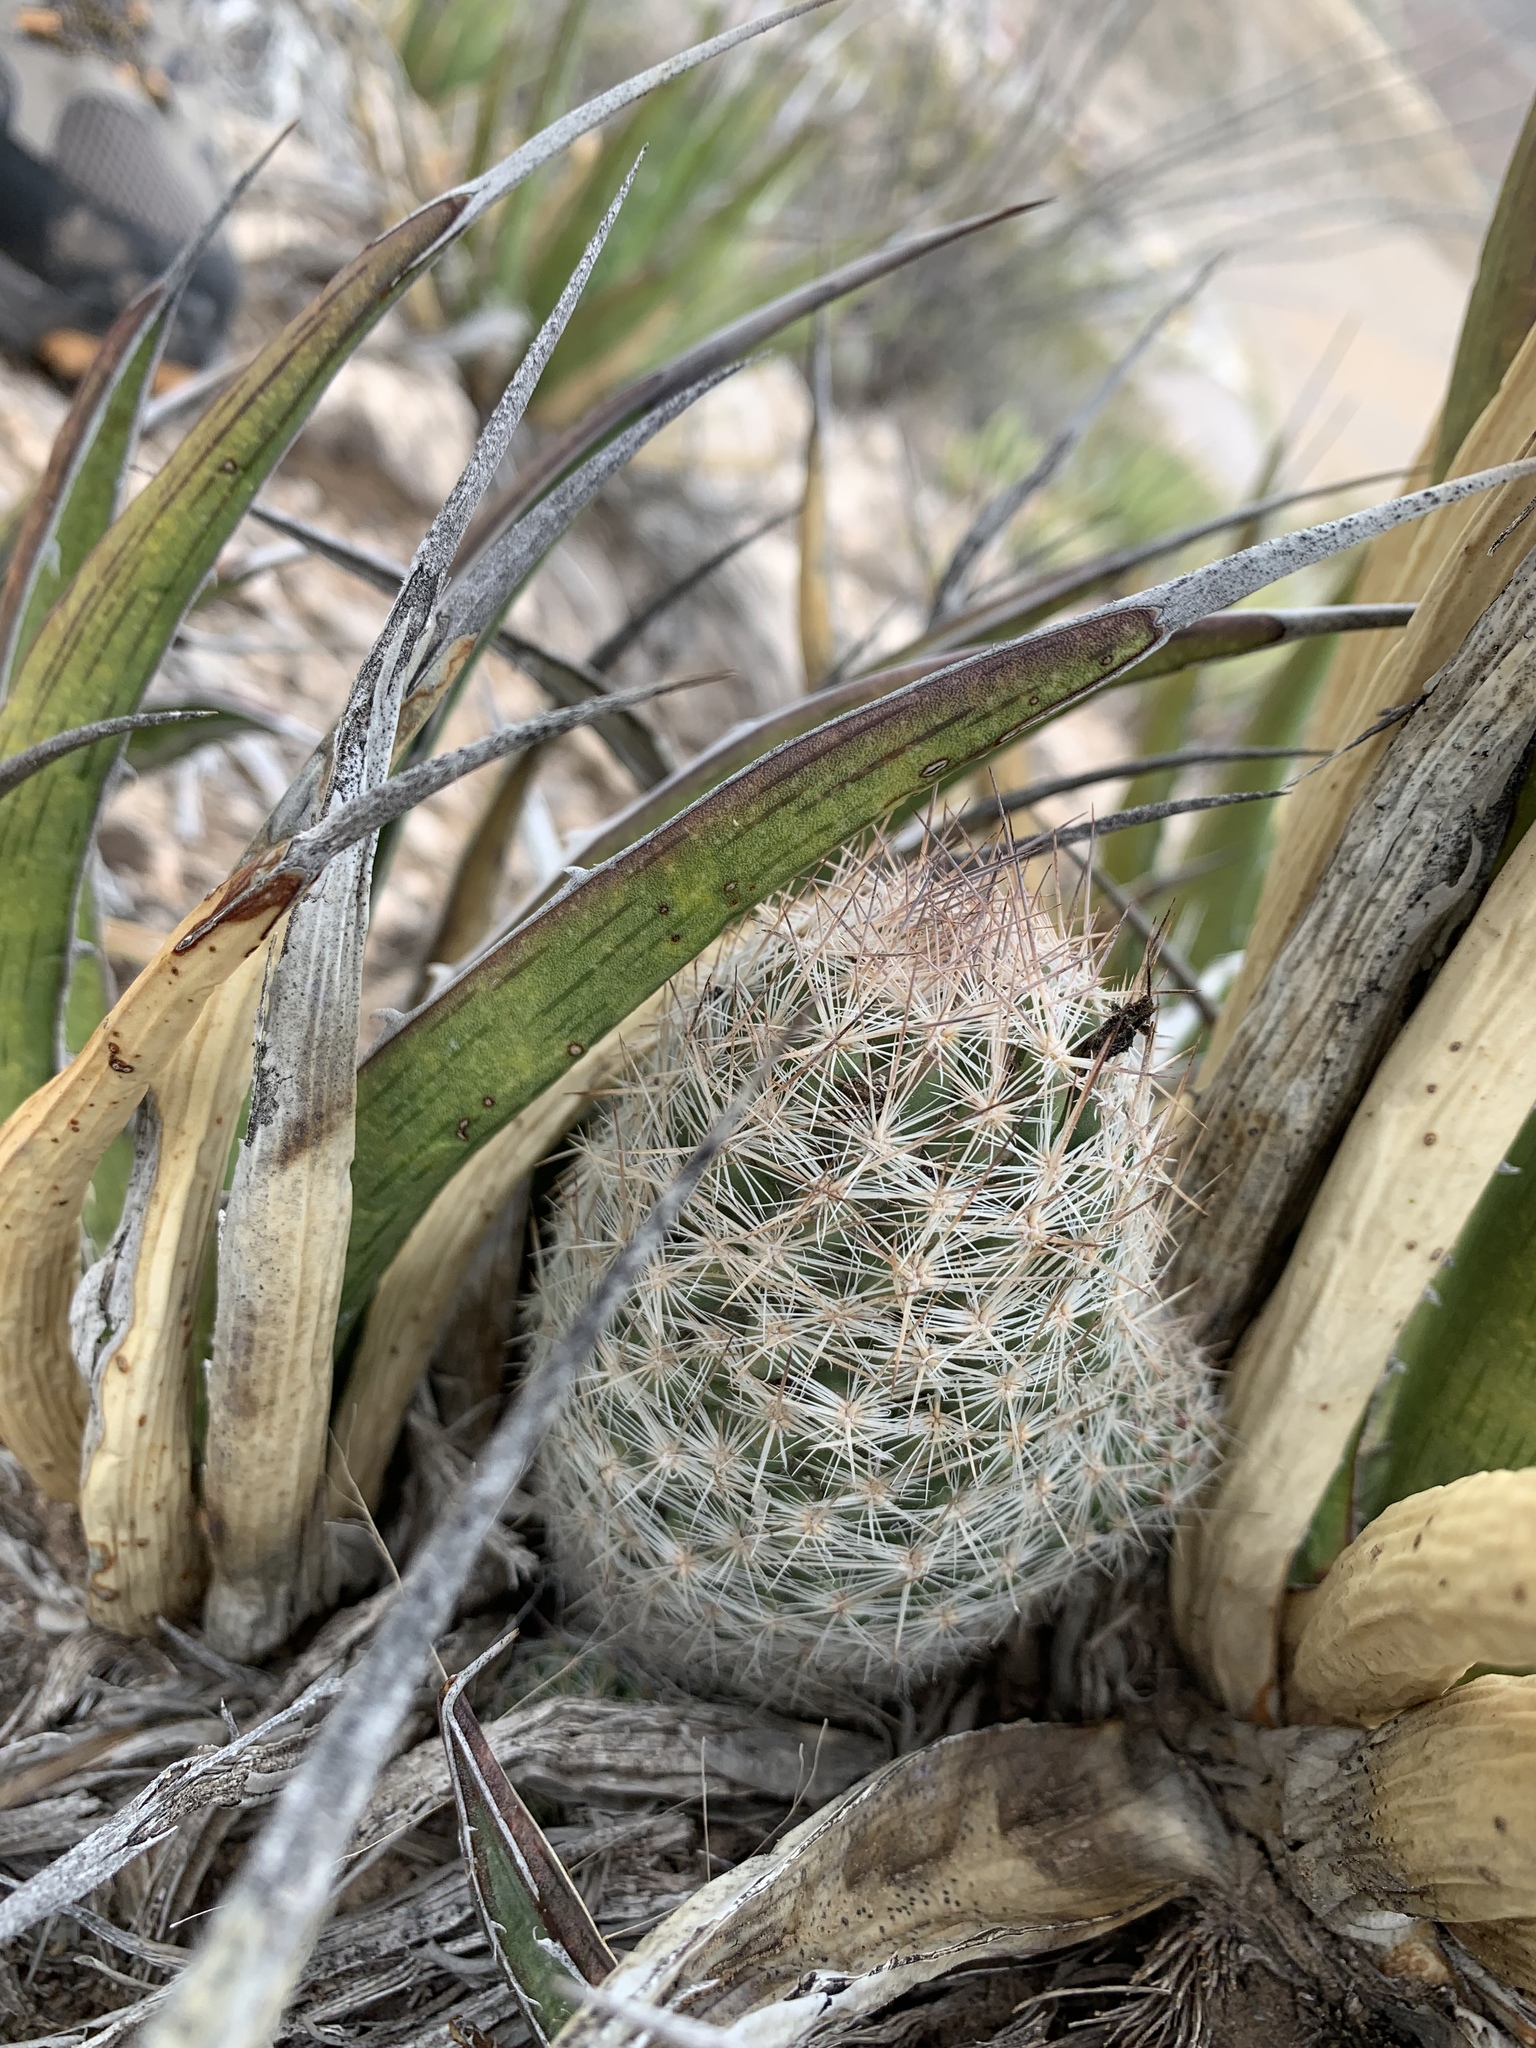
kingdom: Plantae
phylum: Tracheophyta
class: Magnoliopsida
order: Caryophyllales
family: Cactaceae
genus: Pelecyphora
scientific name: Pelecyphora tuberculosa
